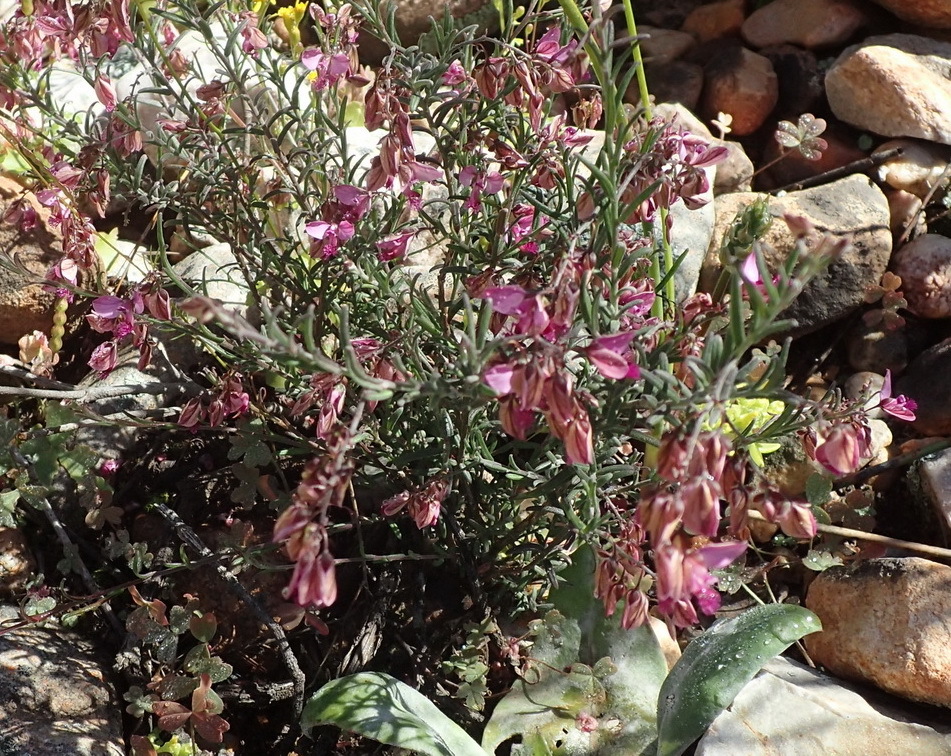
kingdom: Plantae
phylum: Tracheophyta
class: Magnoliopsida
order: Fabales
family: Polygalaceae
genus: Polygala
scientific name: Polygala scabra
